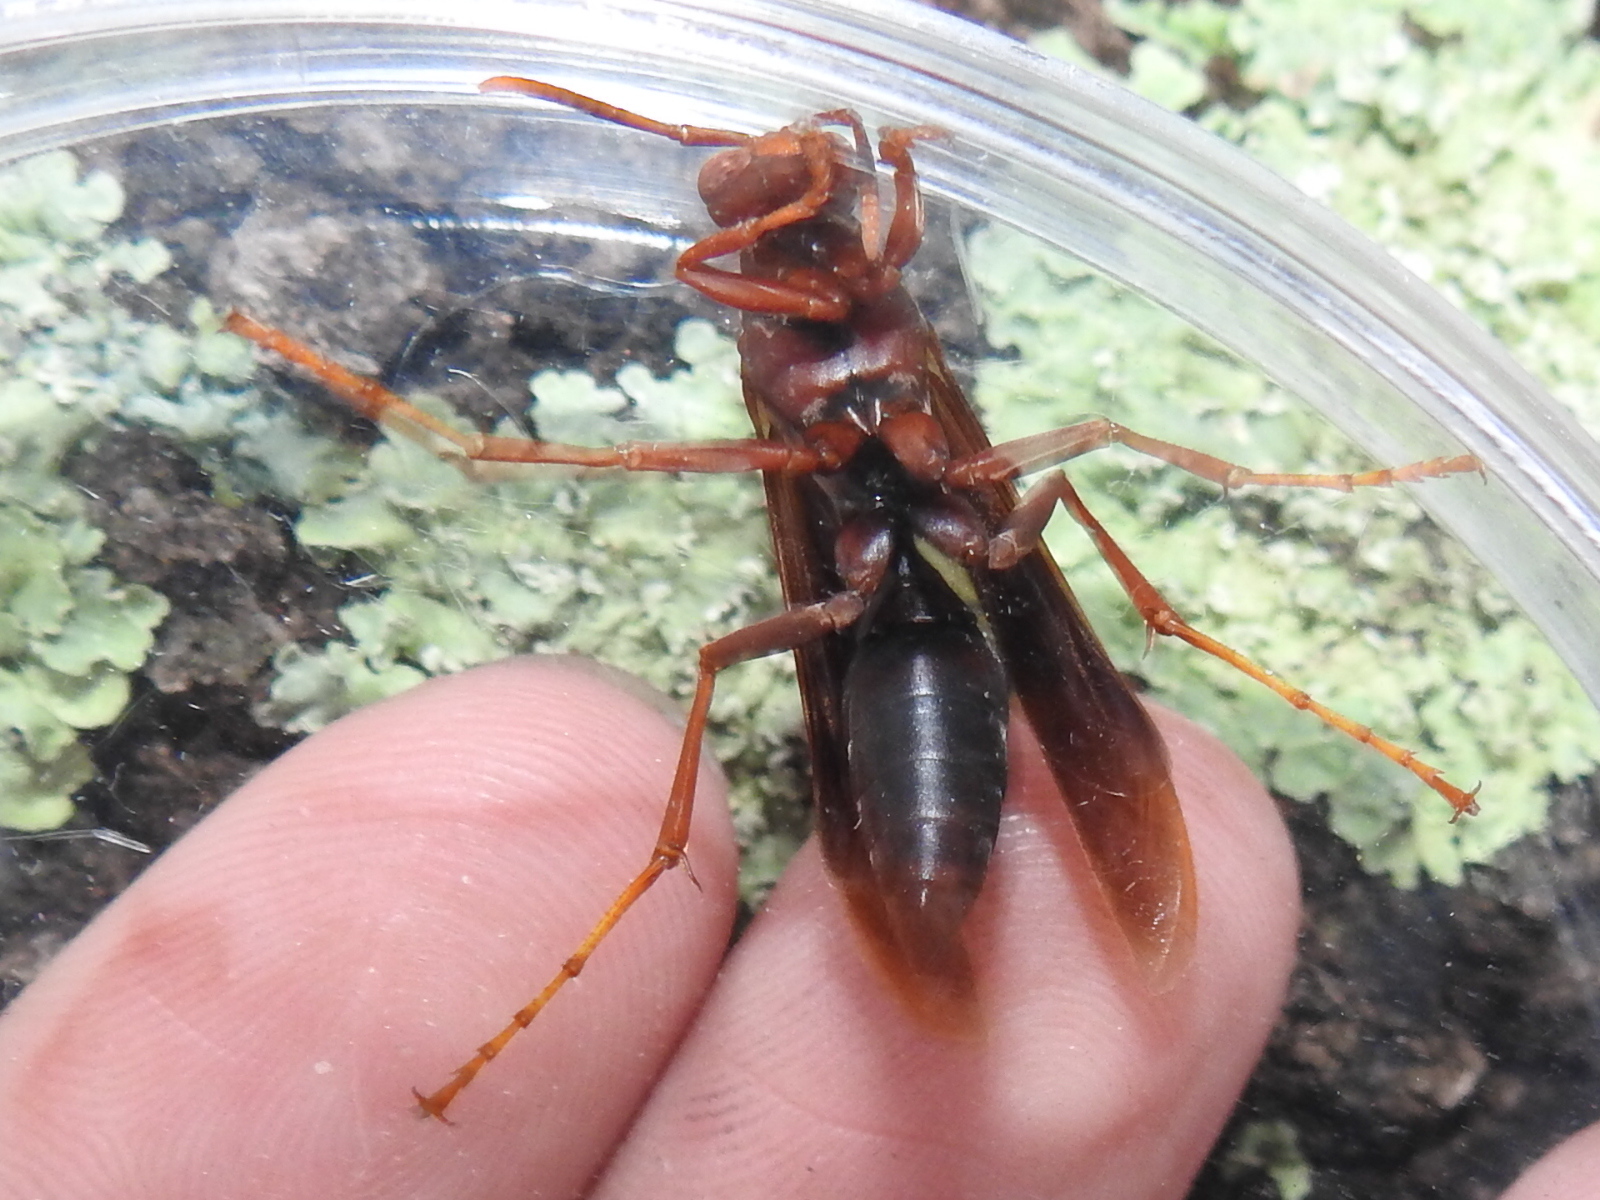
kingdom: Animalia
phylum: Arthropoda
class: Insecta
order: Hymenoptera
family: Eumenidae
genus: Polistes
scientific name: Polistes major
